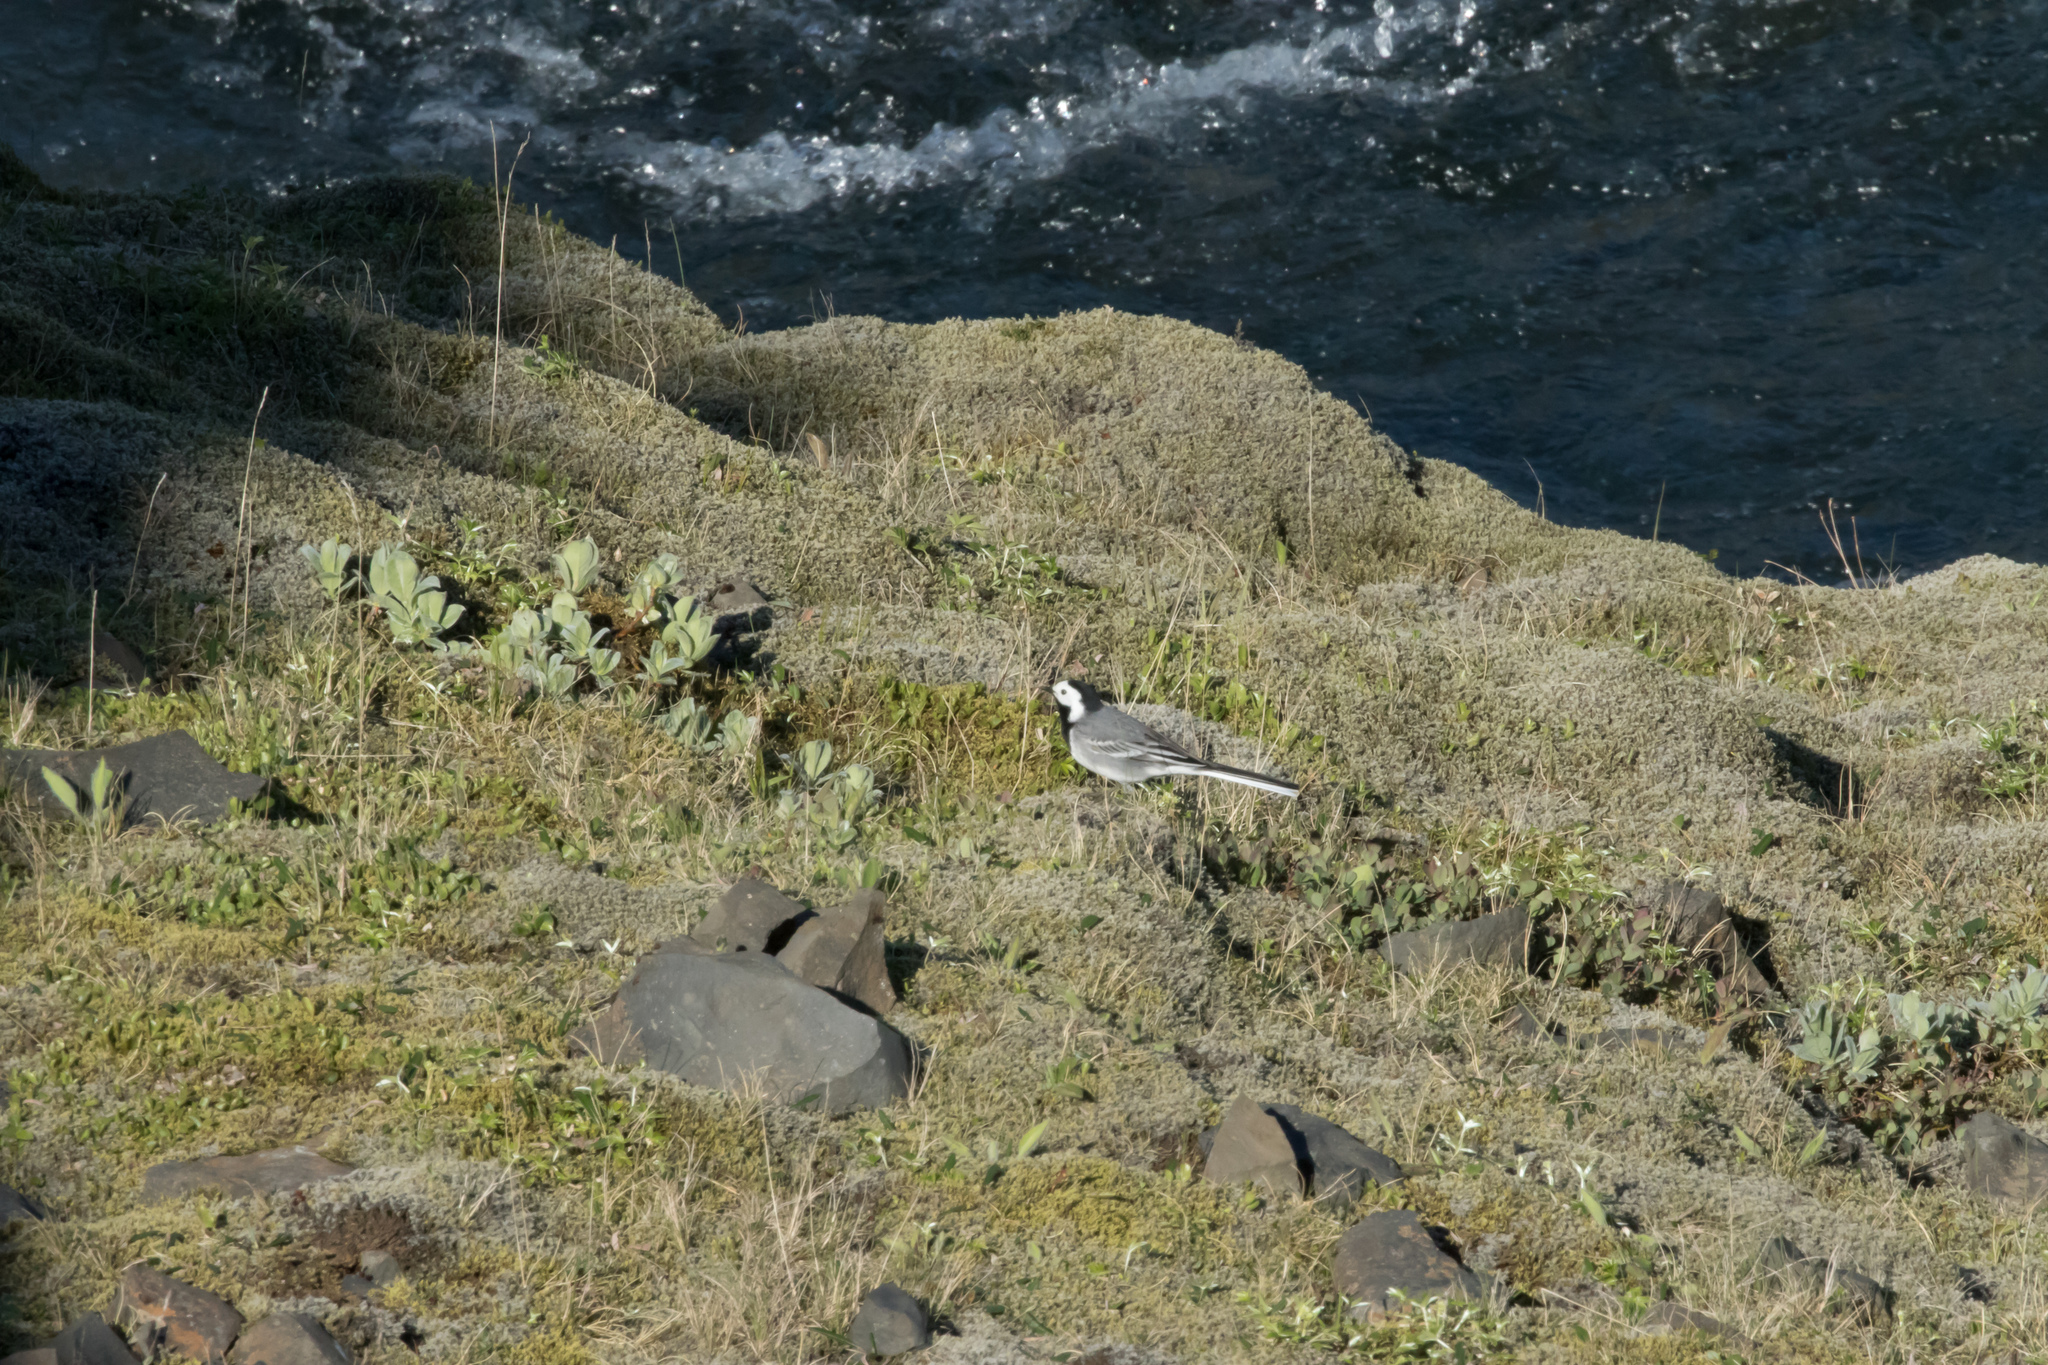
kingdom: Animalia
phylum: Chordata
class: Aves
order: Passeriformes
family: Motacillidae
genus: Motacilla
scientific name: Motacilla alba
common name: White wagtail
